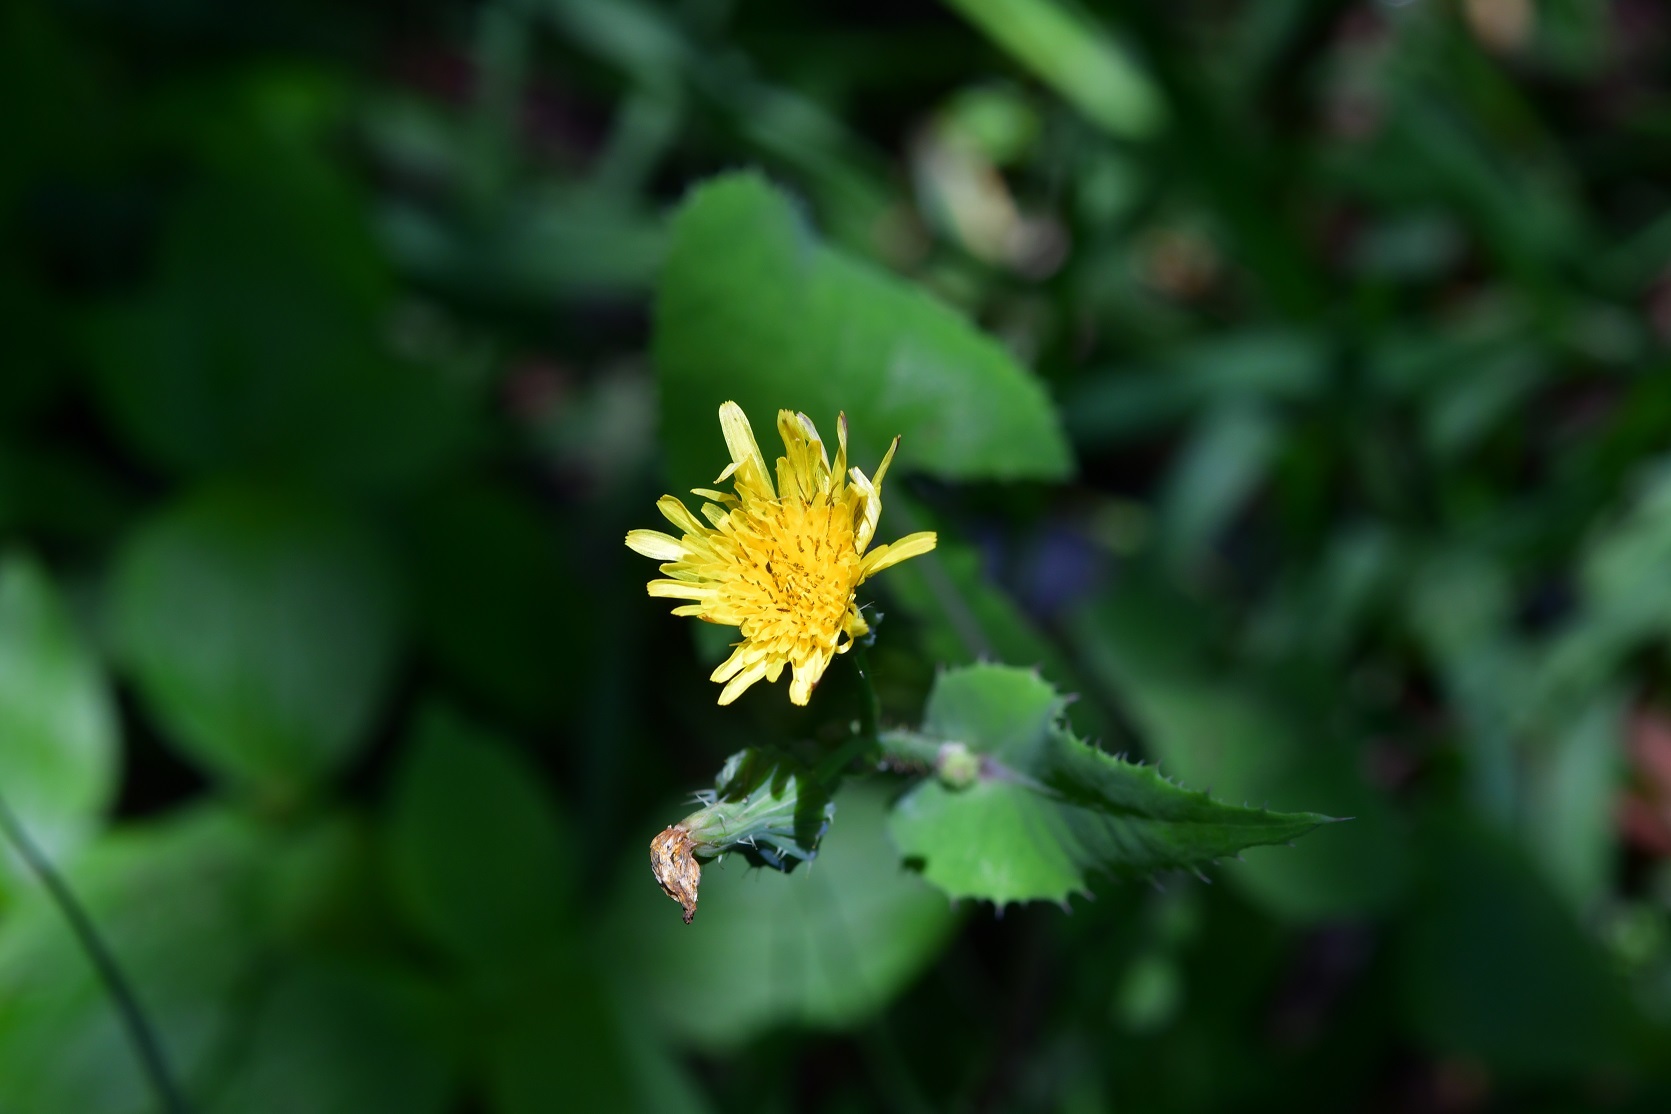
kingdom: Plantae
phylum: Tracheophyta
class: Magnoliopsida
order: Asterales
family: Asteraceae
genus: Sonchus
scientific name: Sonchus oleraceus
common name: Common sowthistle
